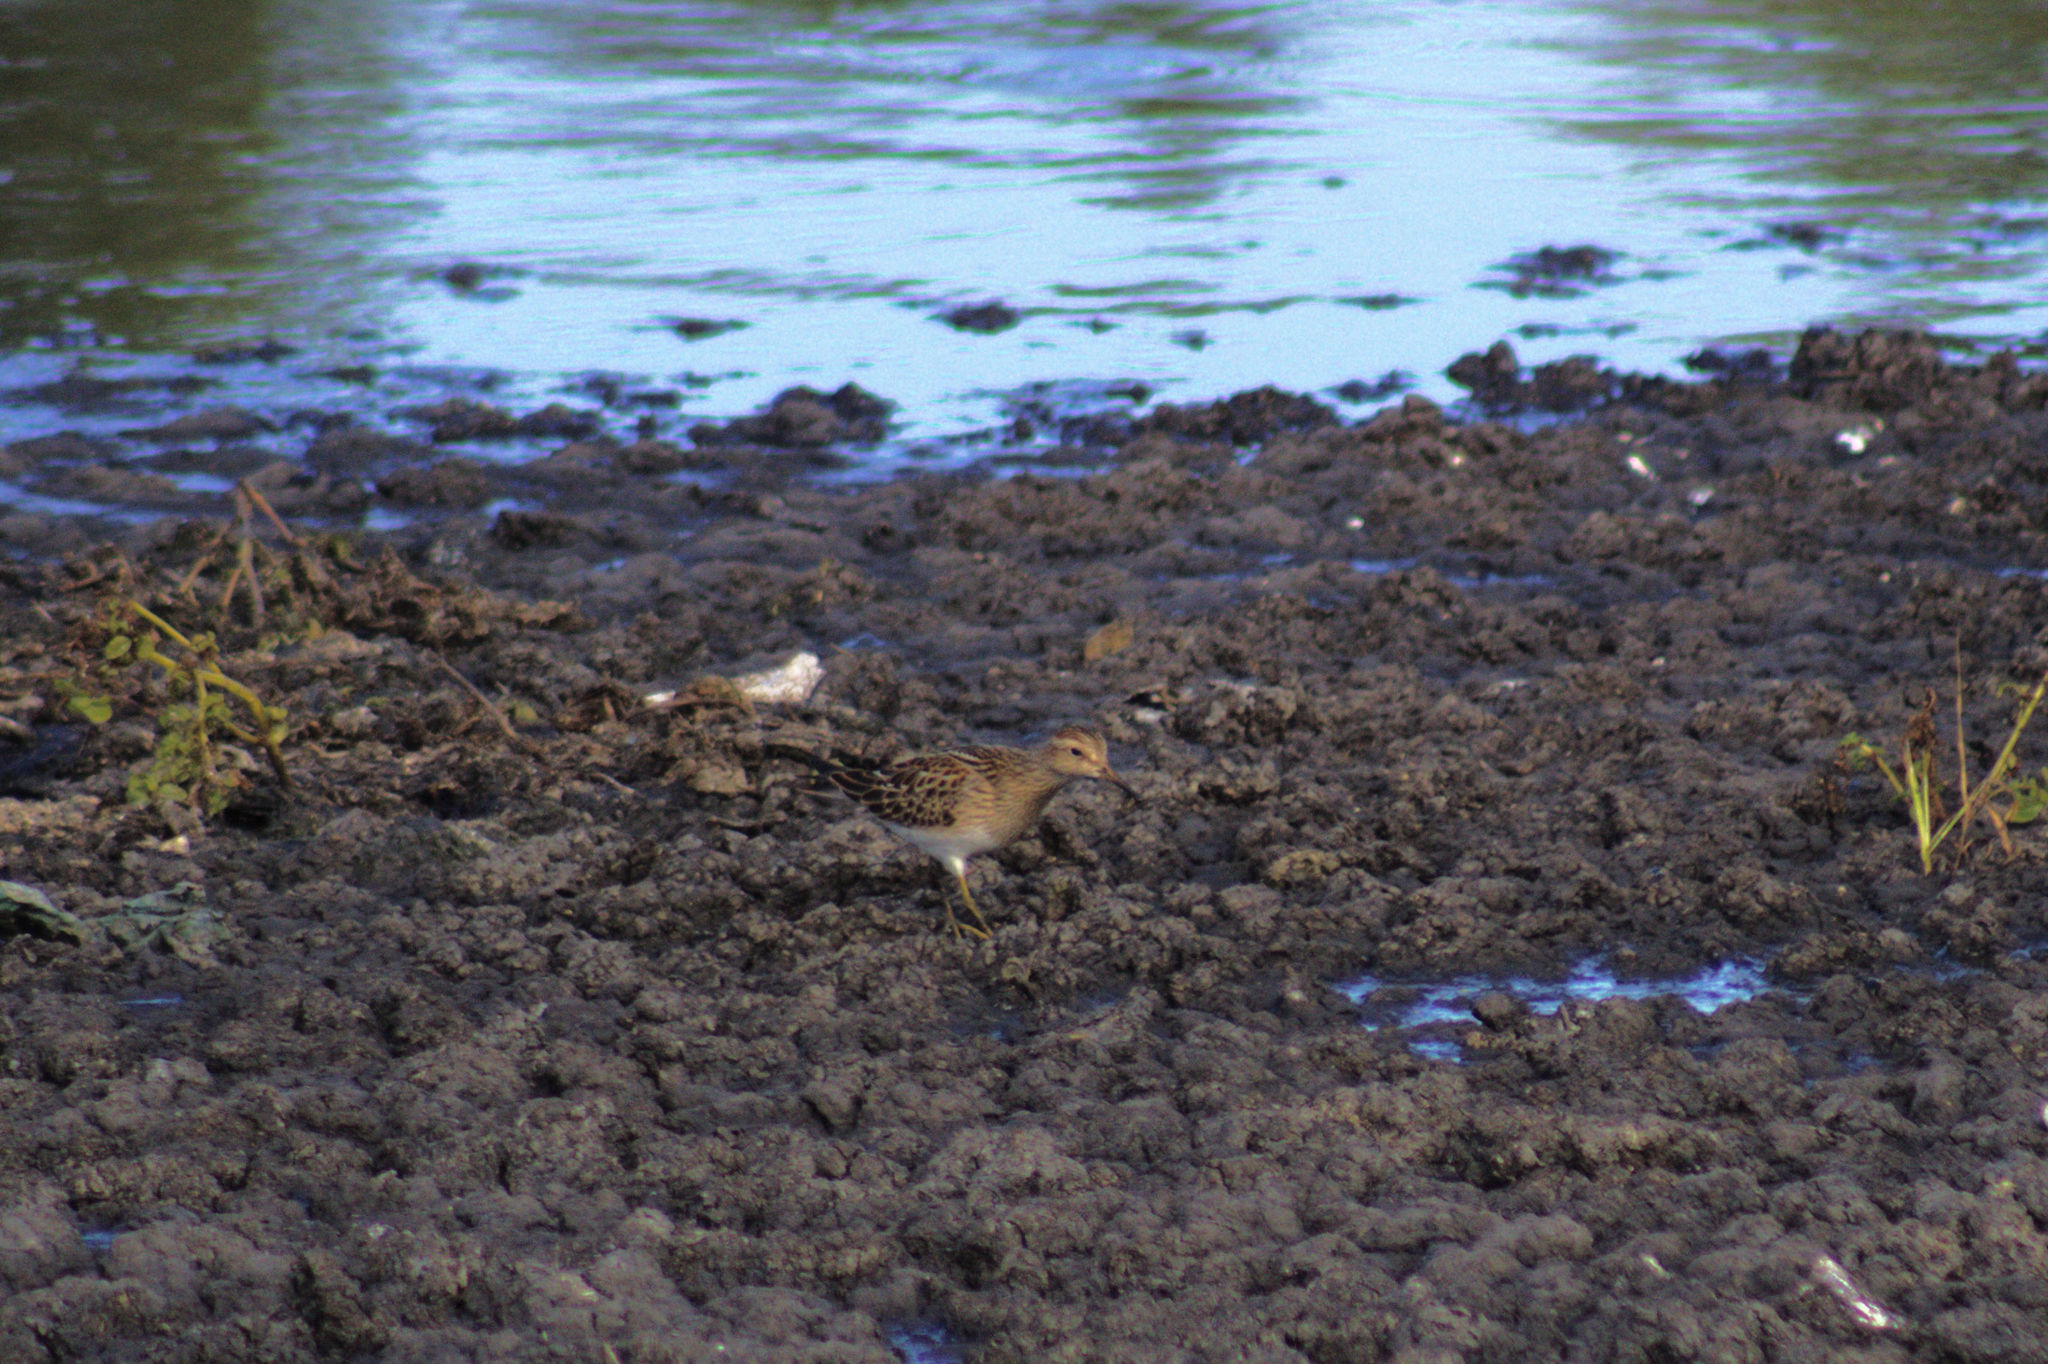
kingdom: Animalia
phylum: Chordata
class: Aves
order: Charadriiformes
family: Scolopacidae
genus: Calidris
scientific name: Calidris melanotos
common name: Pectoral sandpiper
